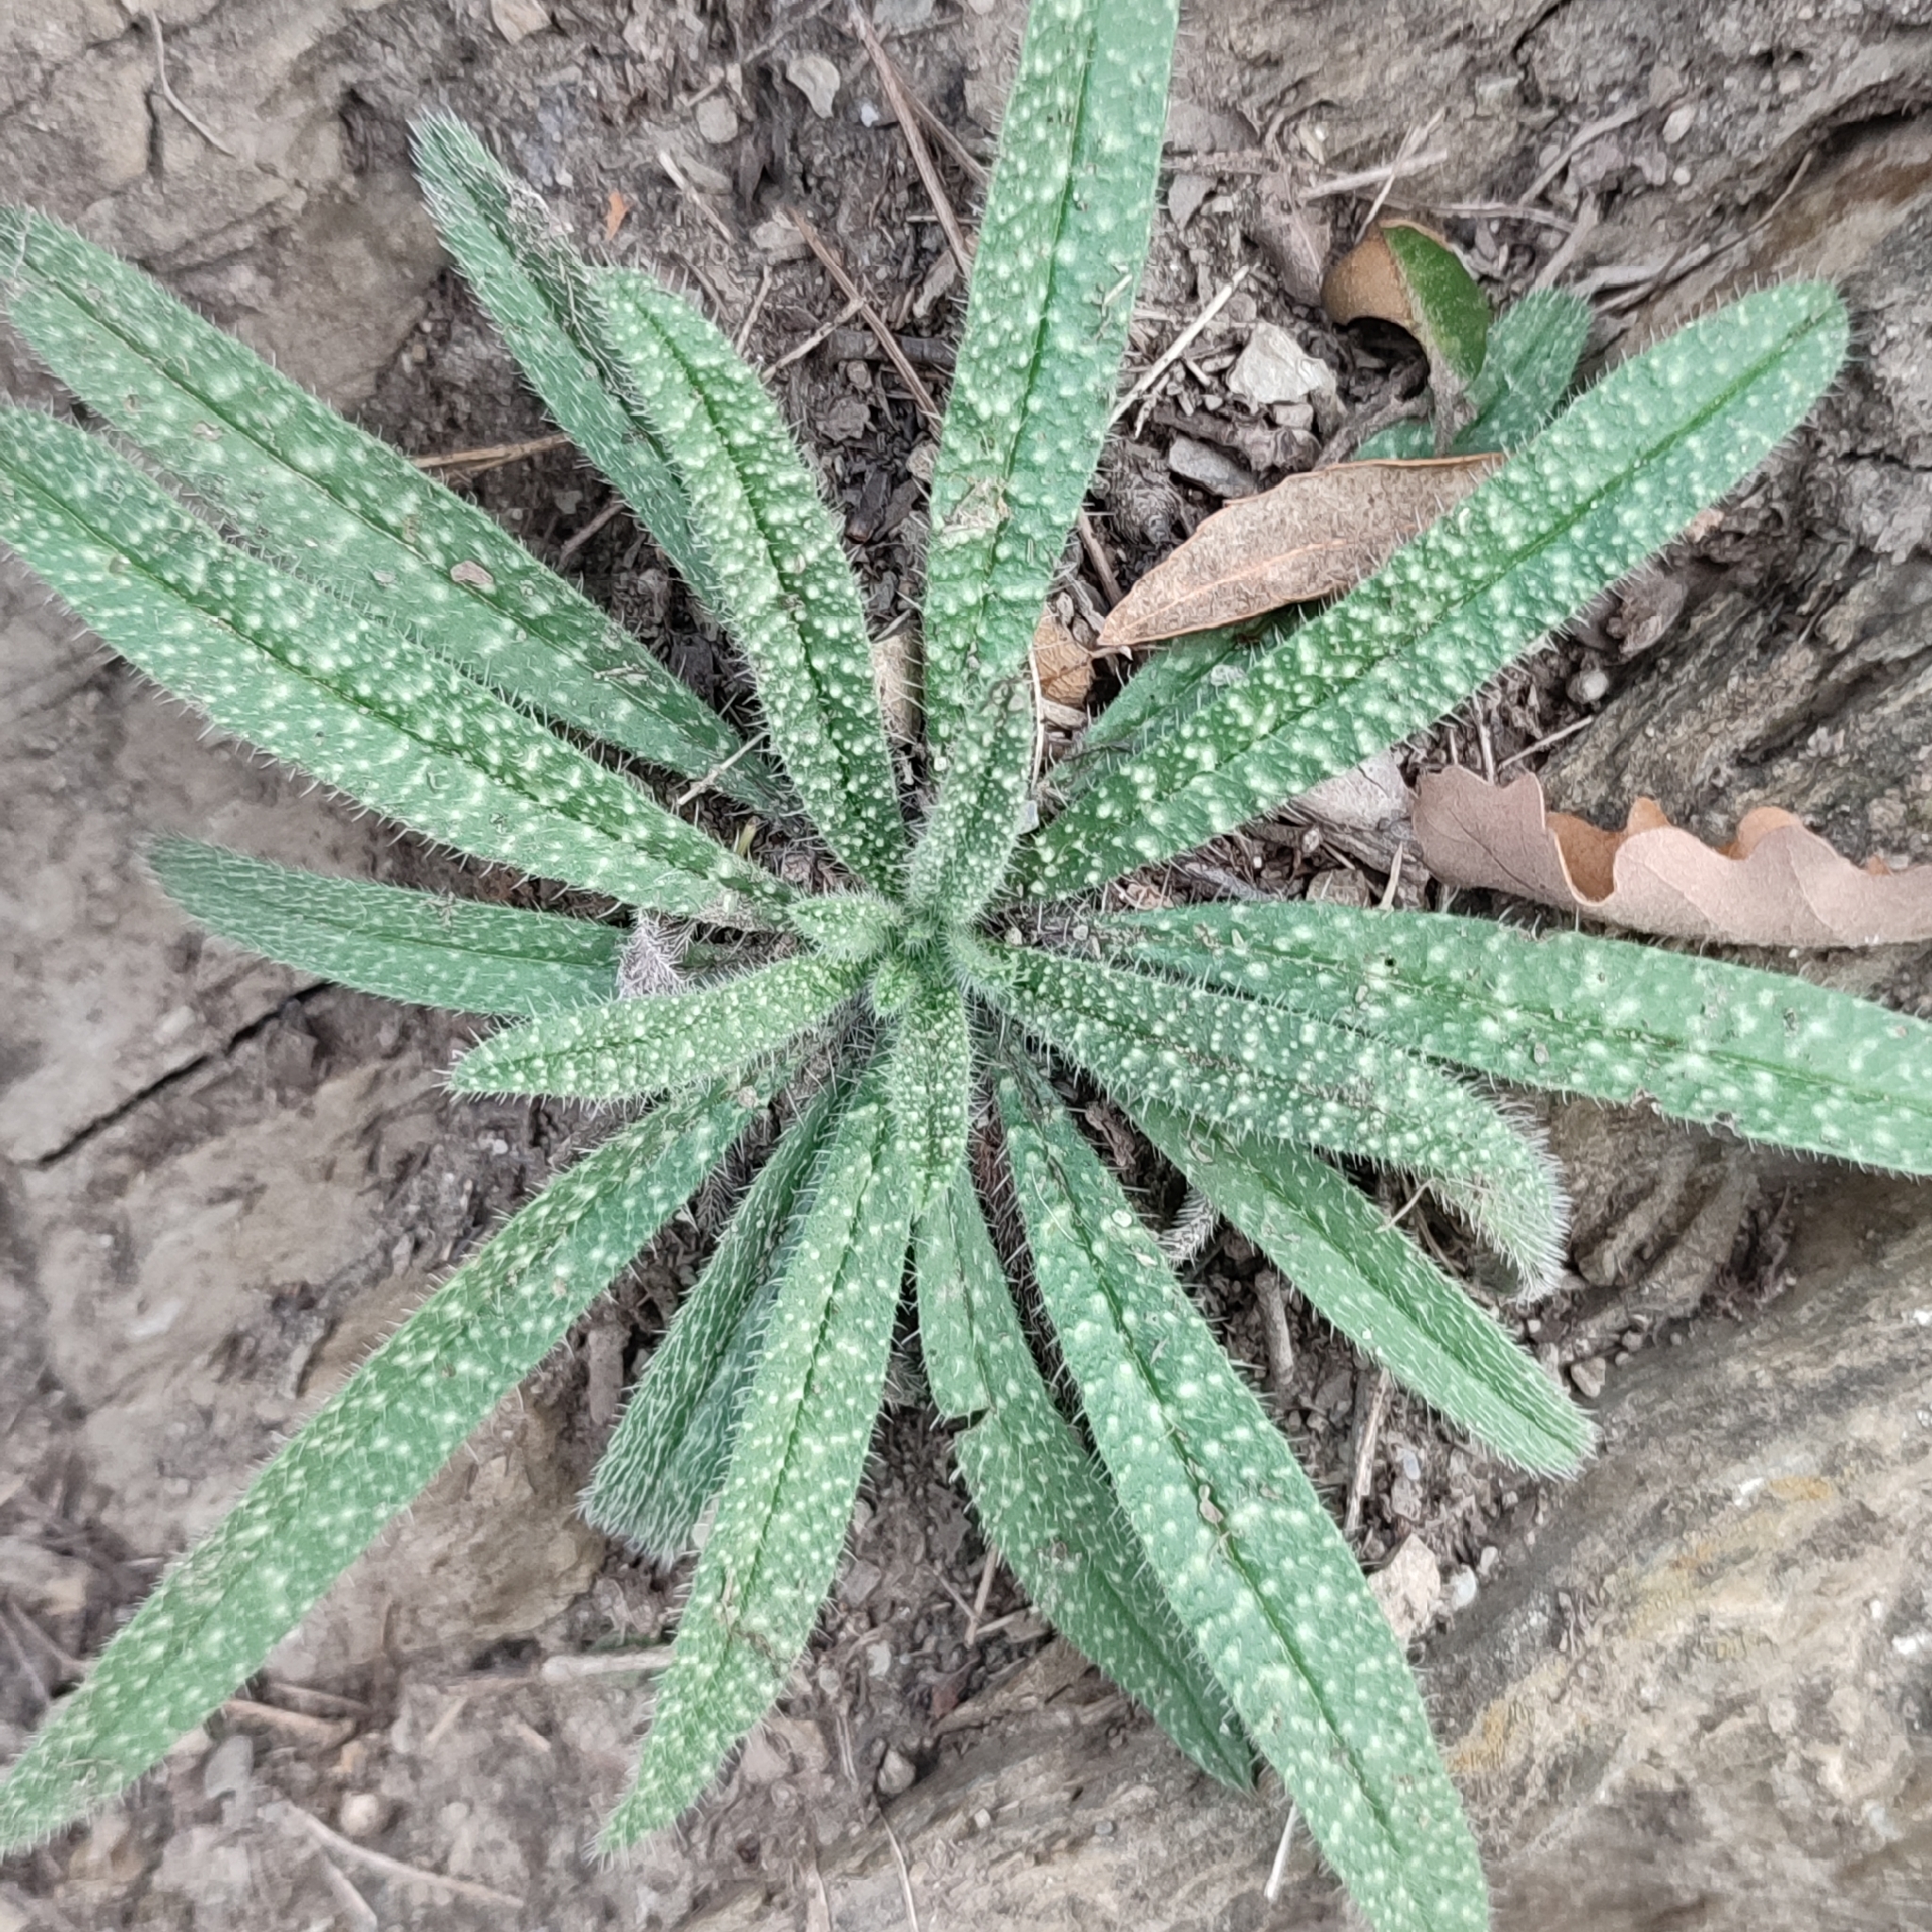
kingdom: Plantae
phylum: Tracheophyta
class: Magnoliopsida
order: Boraginales
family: Boraginaceae
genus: Echium
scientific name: Echium vulgare
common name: Common viper's bugloss
